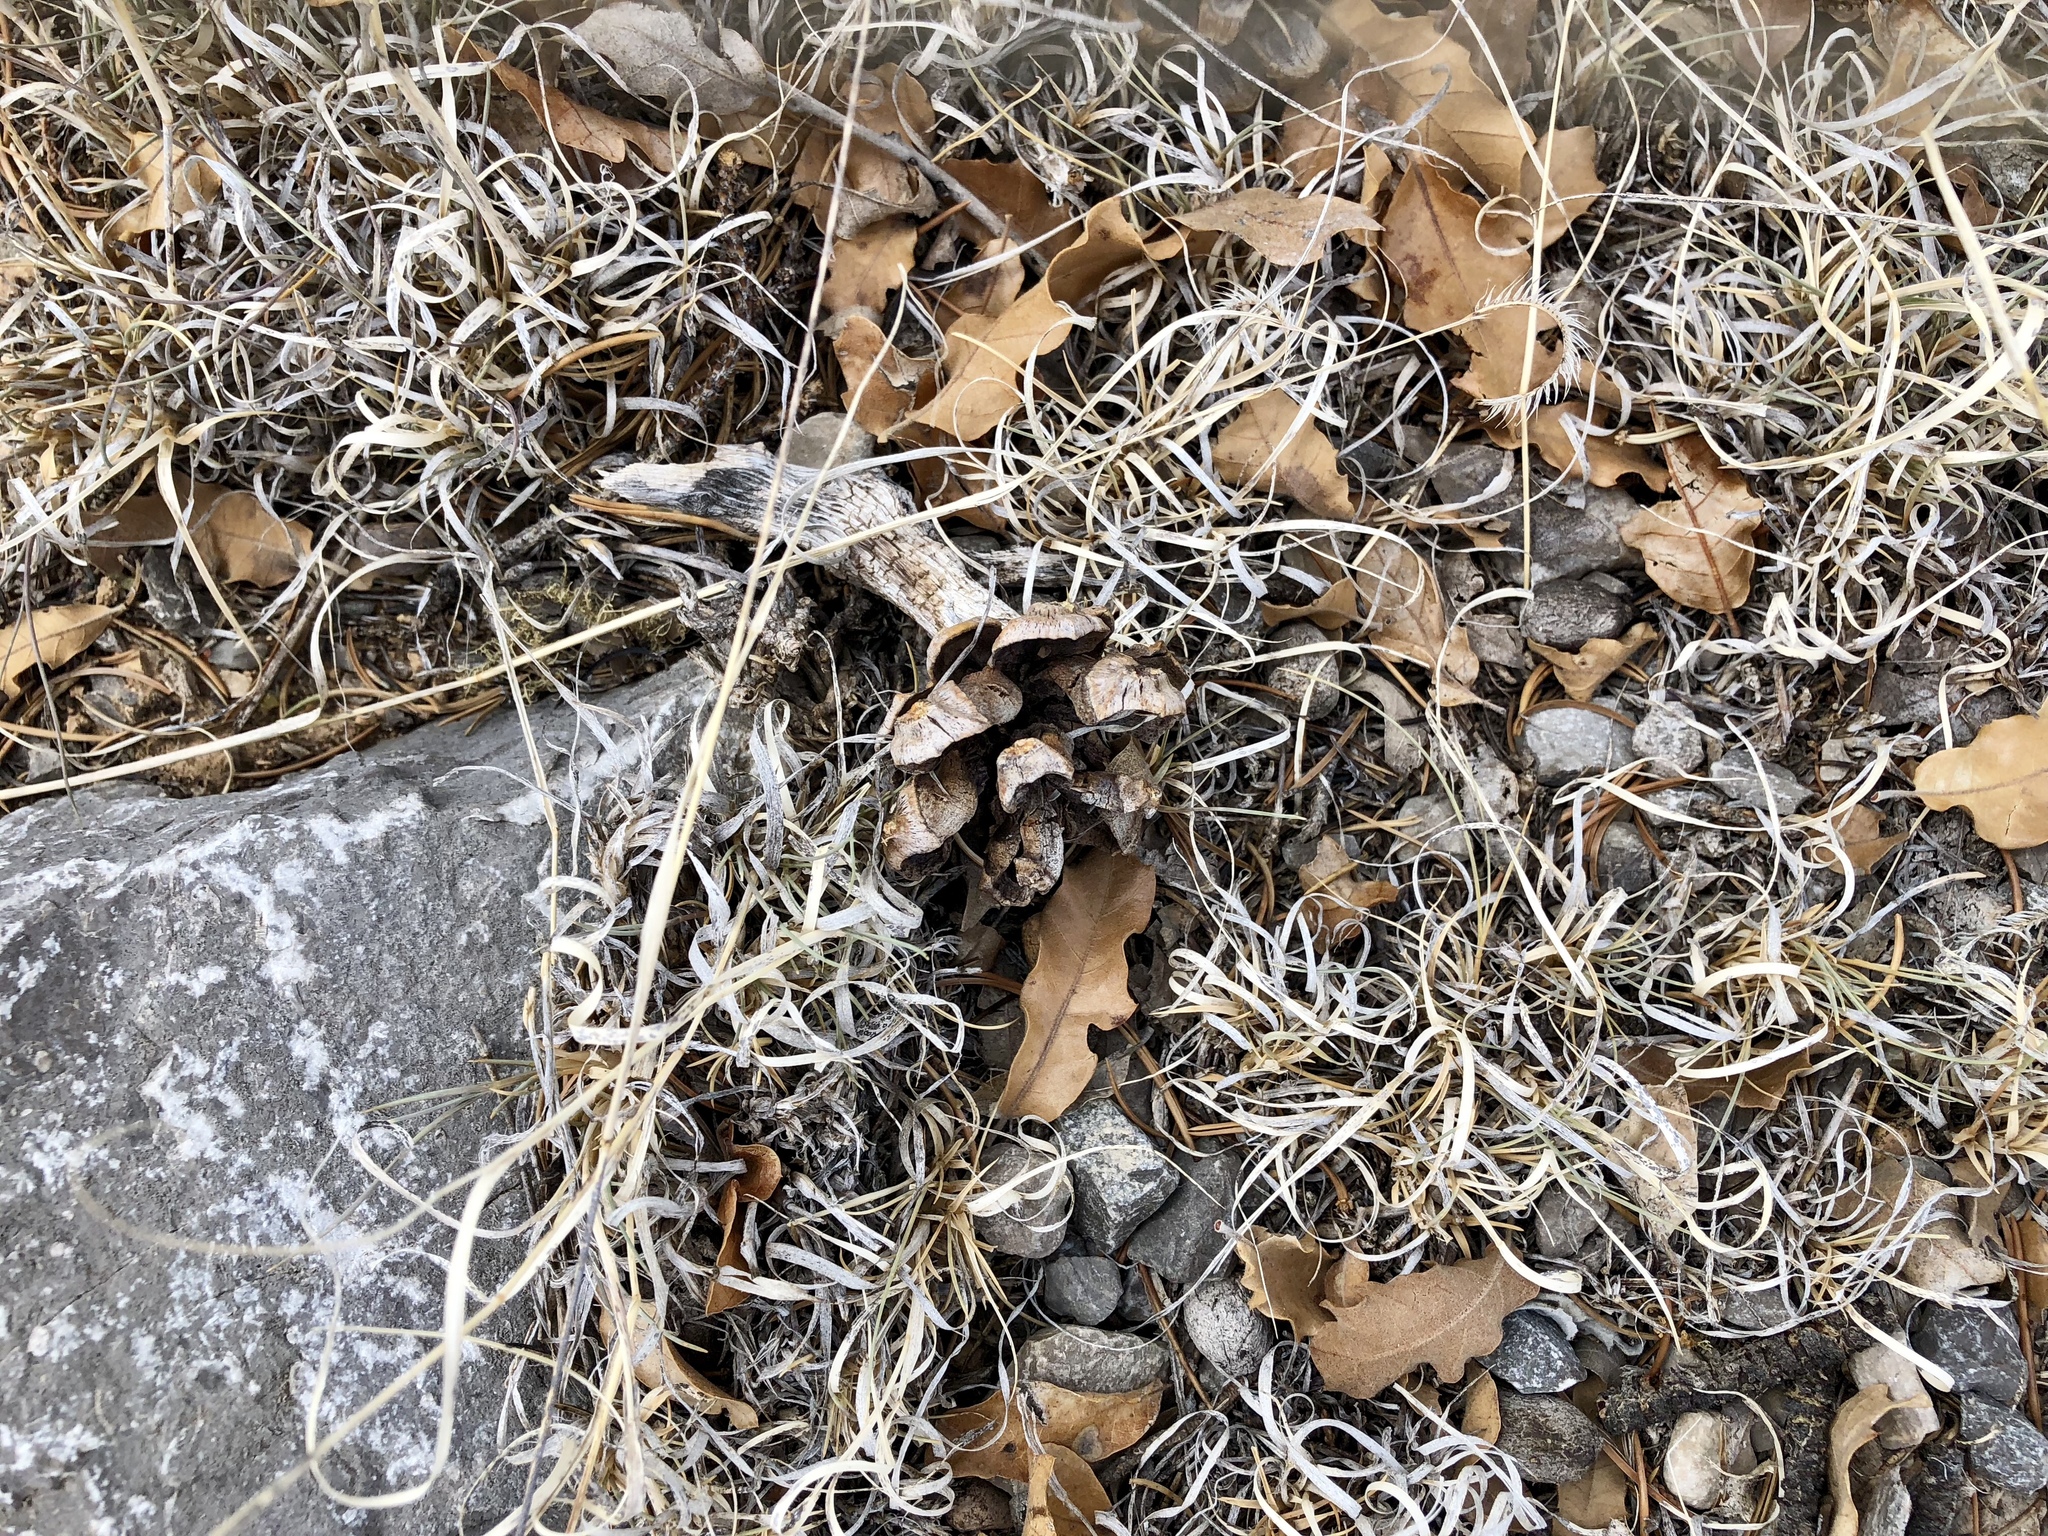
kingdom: Plantae
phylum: Tracheophyta
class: Pinopsida
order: Pinales
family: Pinaceae
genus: Pinus
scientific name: Pinus edulis
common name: Colorado pinyon
